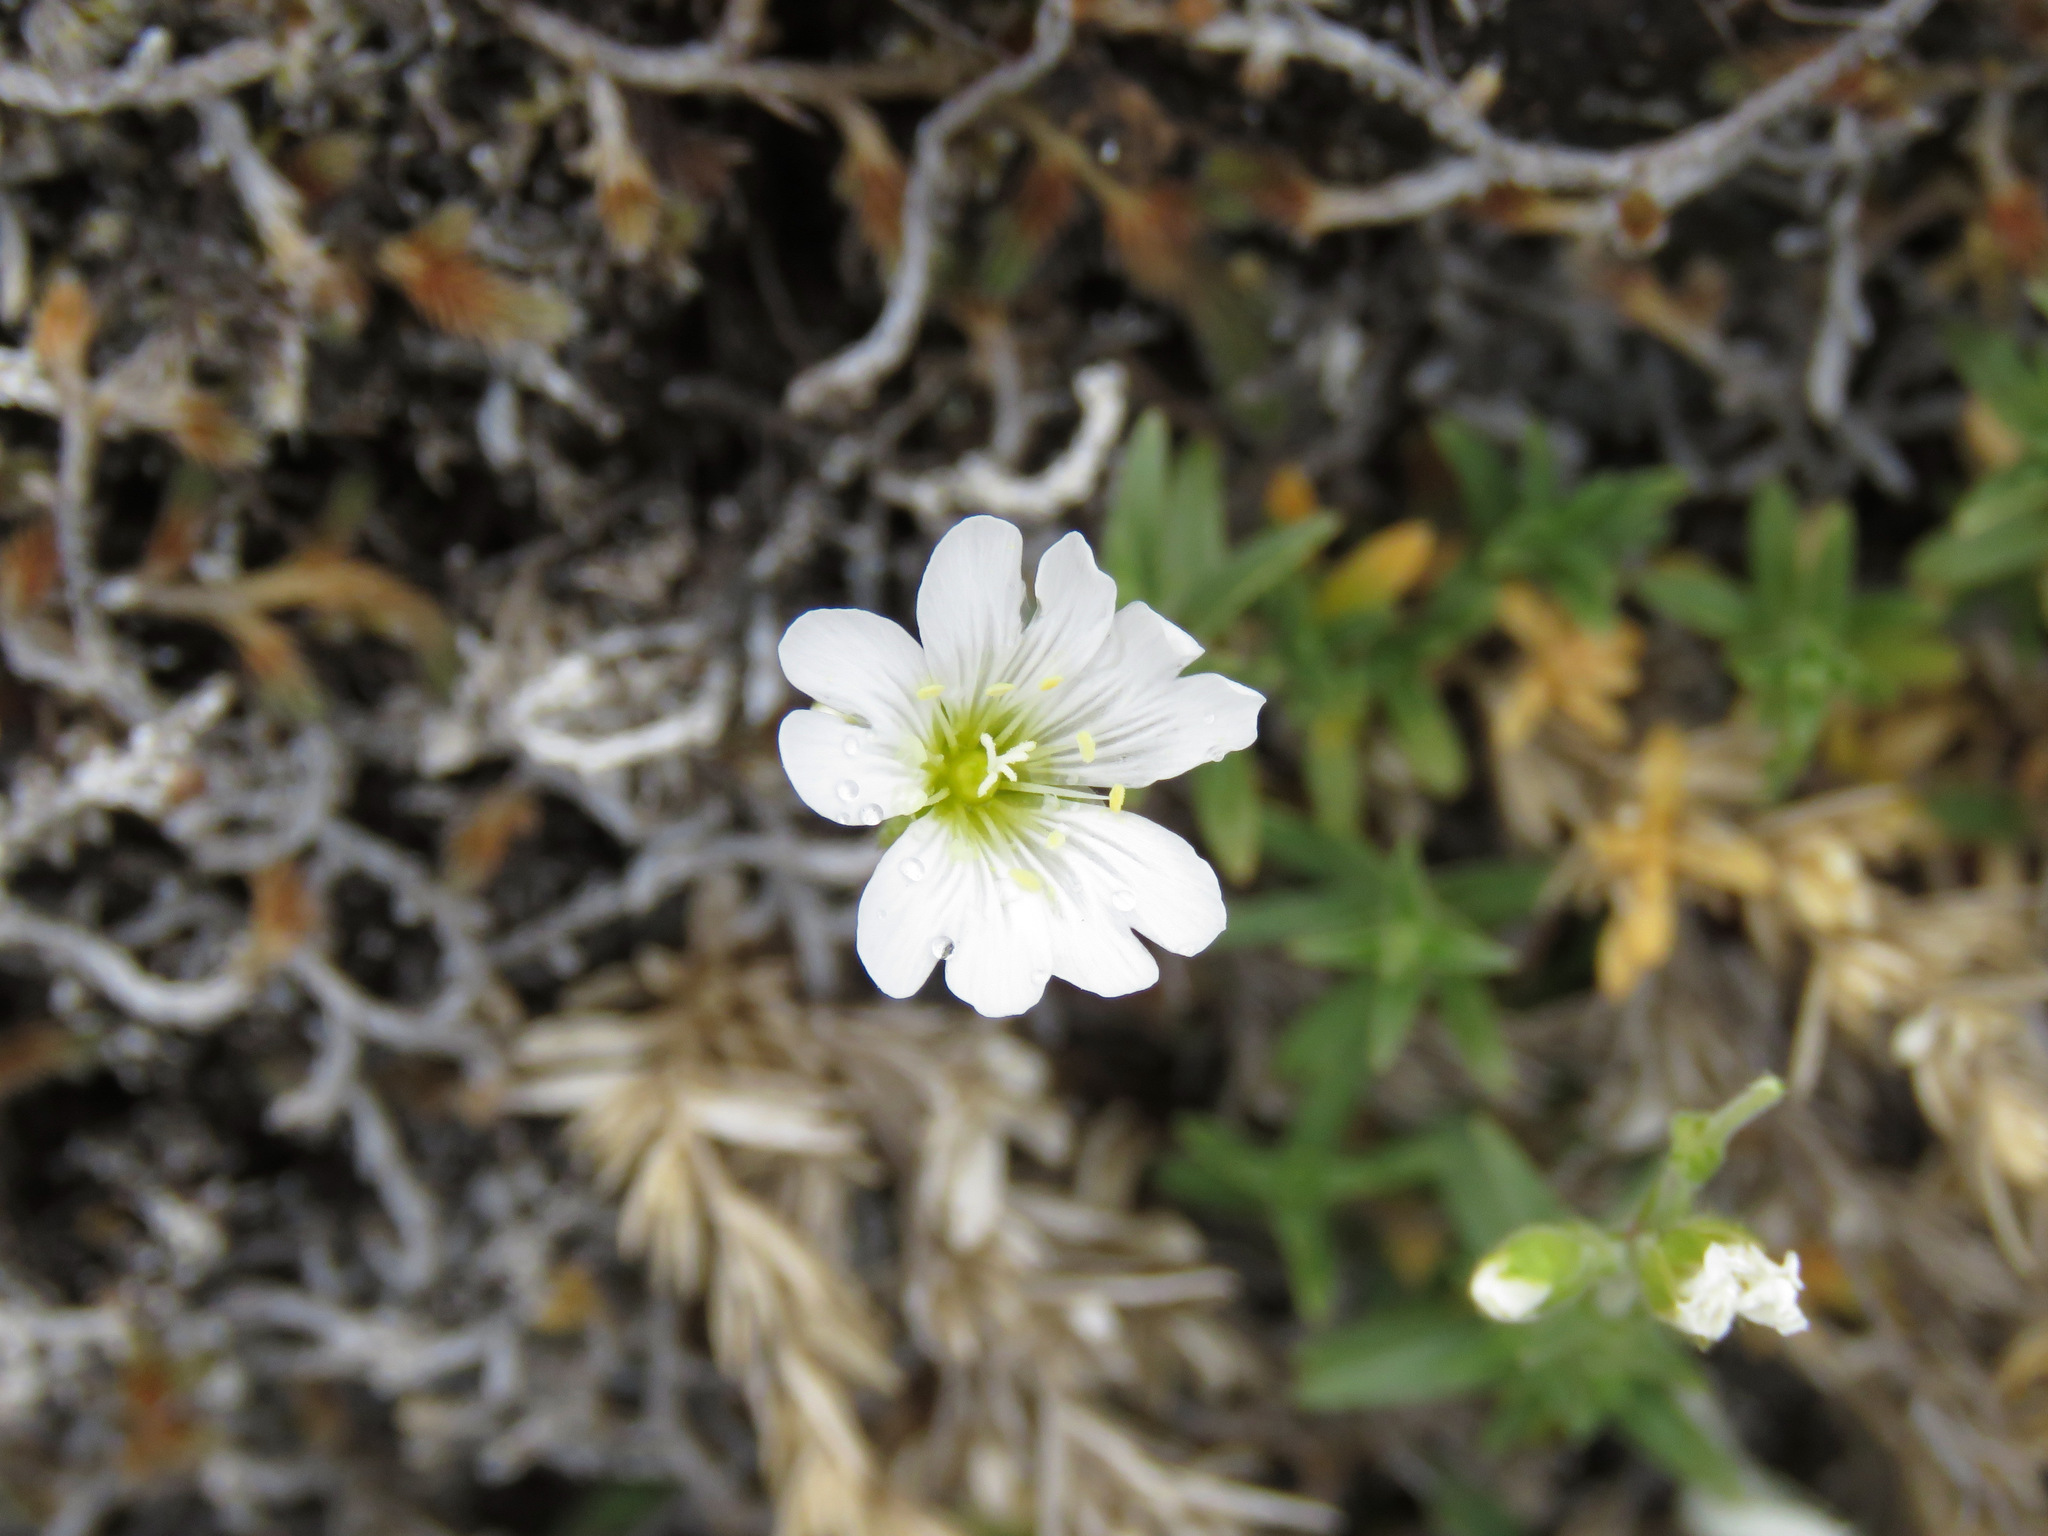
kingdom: Plantae
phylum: Tracheophyta
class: Magnoliopsida
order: Caryophyllales
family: Caryophyllaceae
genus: Cerastium
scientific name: Cerastium arvense
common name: Field mouse-ear
